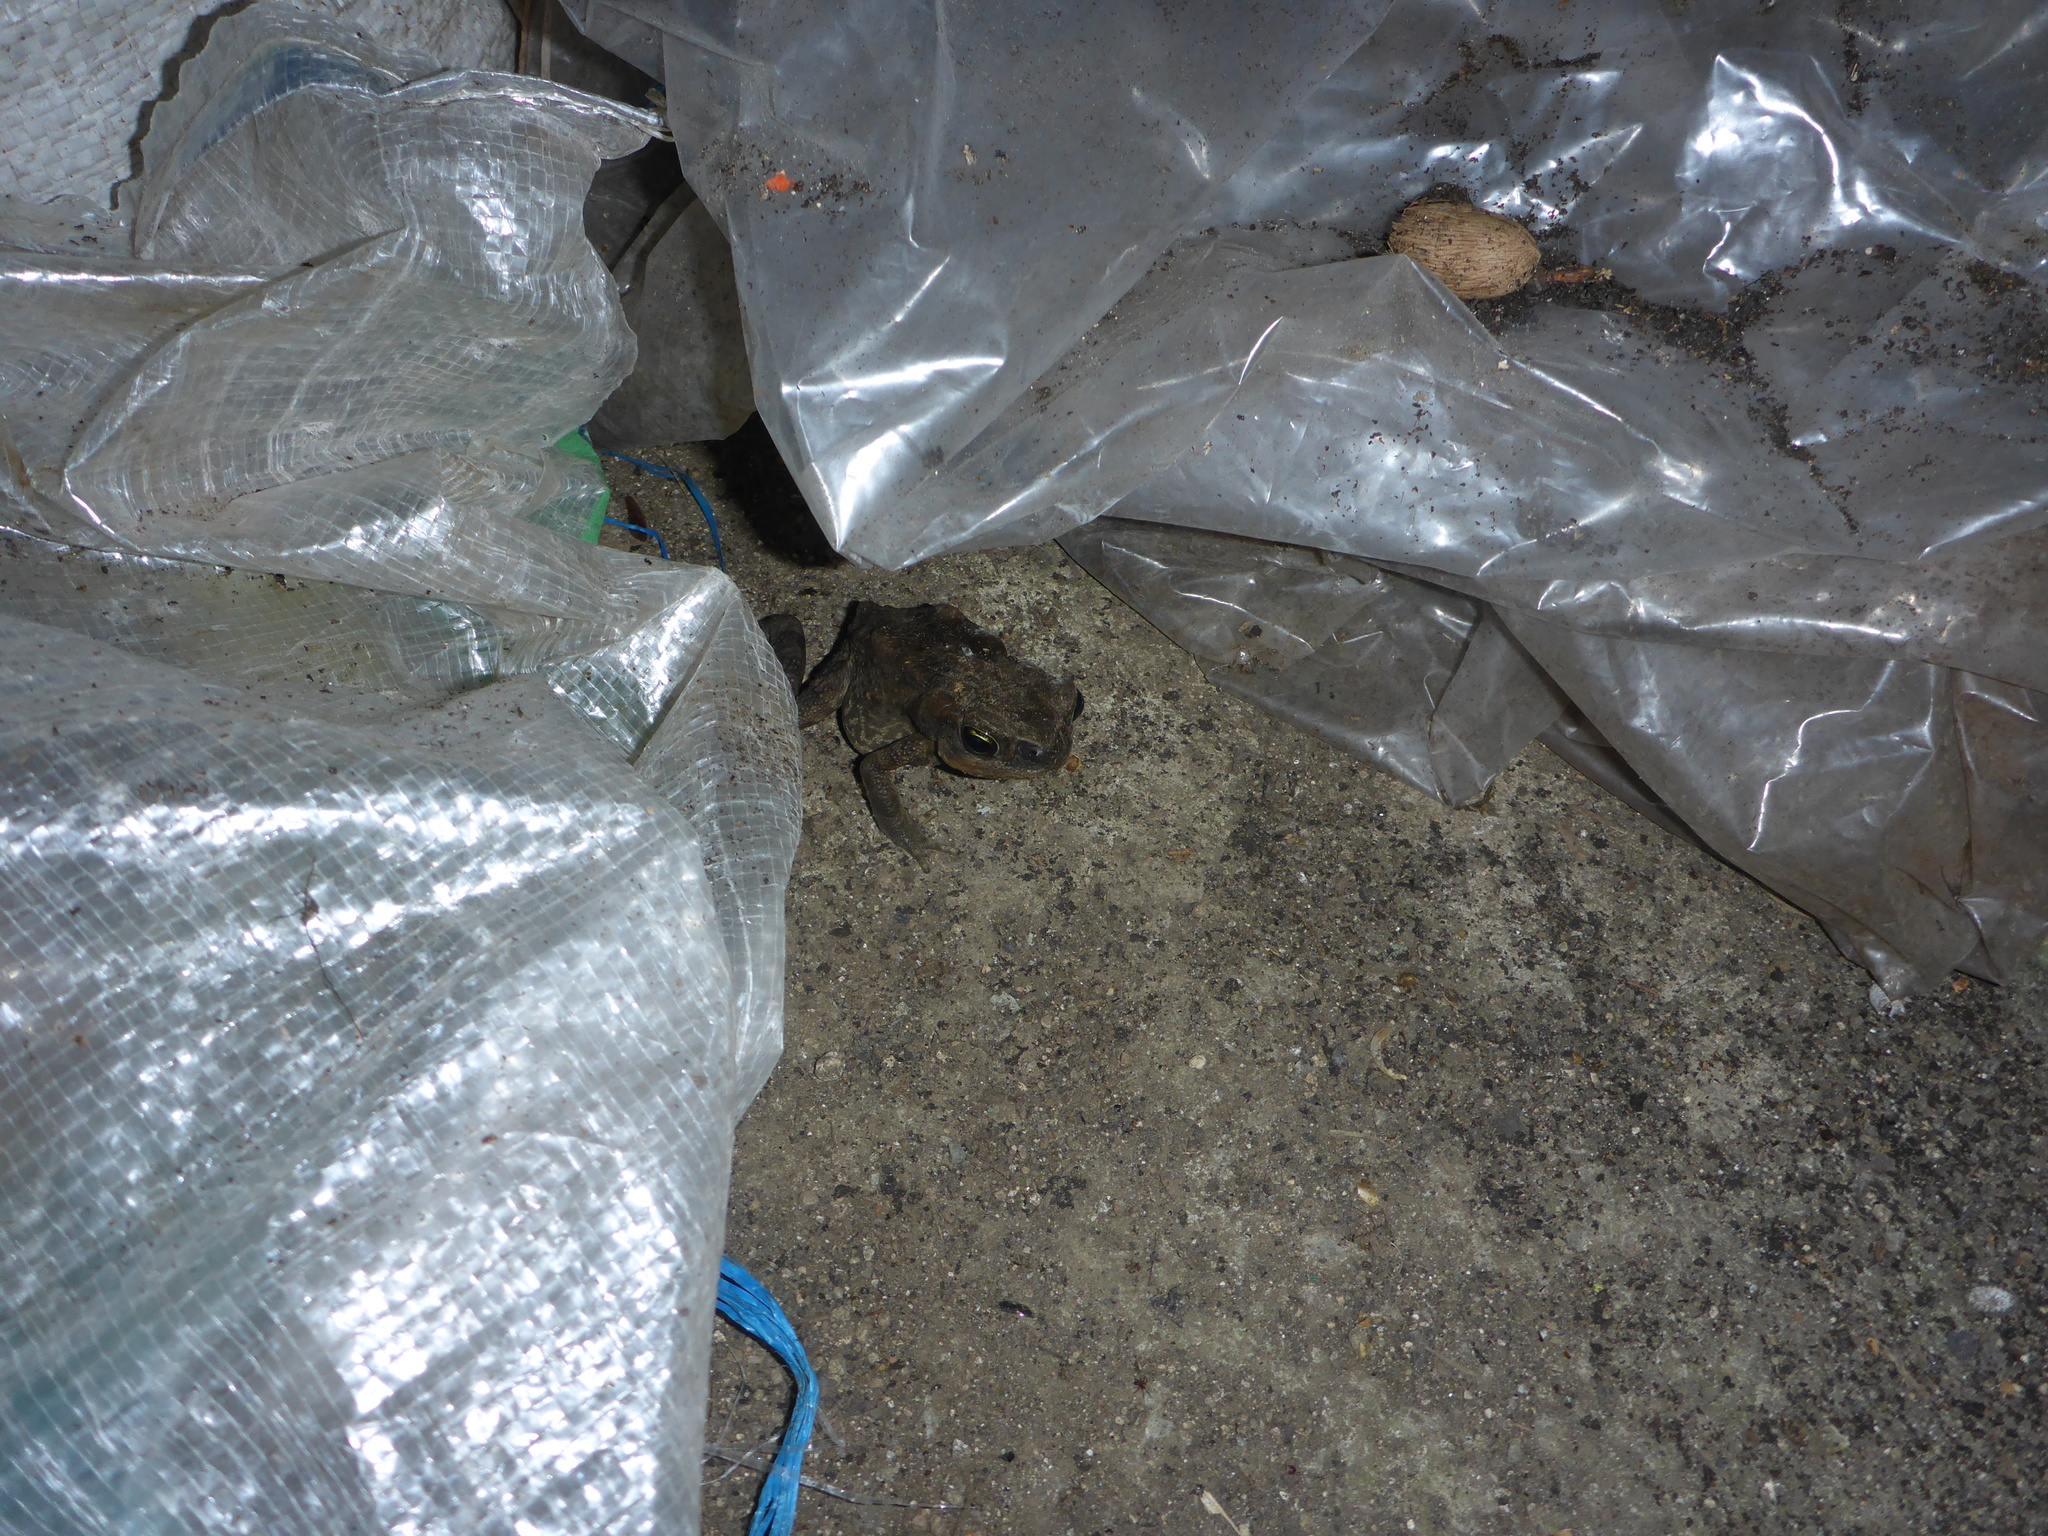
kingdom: Animalia
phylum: Chordata
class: Amphibia
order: Anura
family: Bufonidae
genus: Rhinella
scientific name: Rhinella marina
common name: Cane toad
